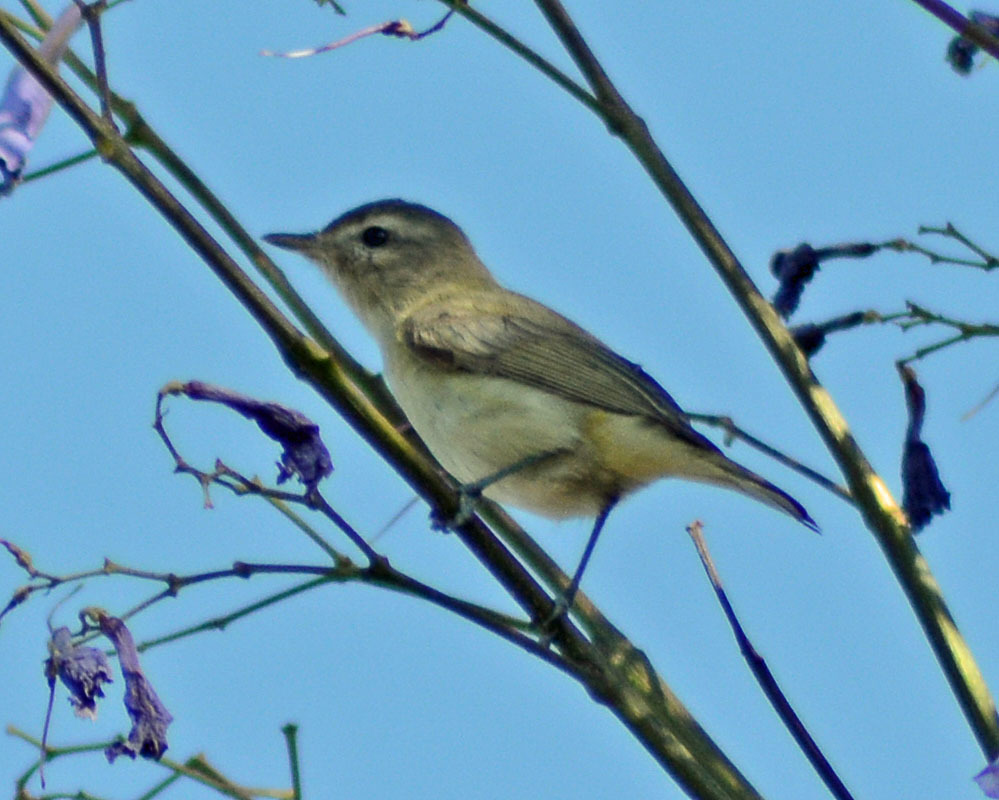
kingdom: Animalia
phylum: Chordata
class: Aves
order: Passeriformes
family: Vireonidae
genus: Vireo
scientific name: Vireo gilvus
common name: Warbling vireo
